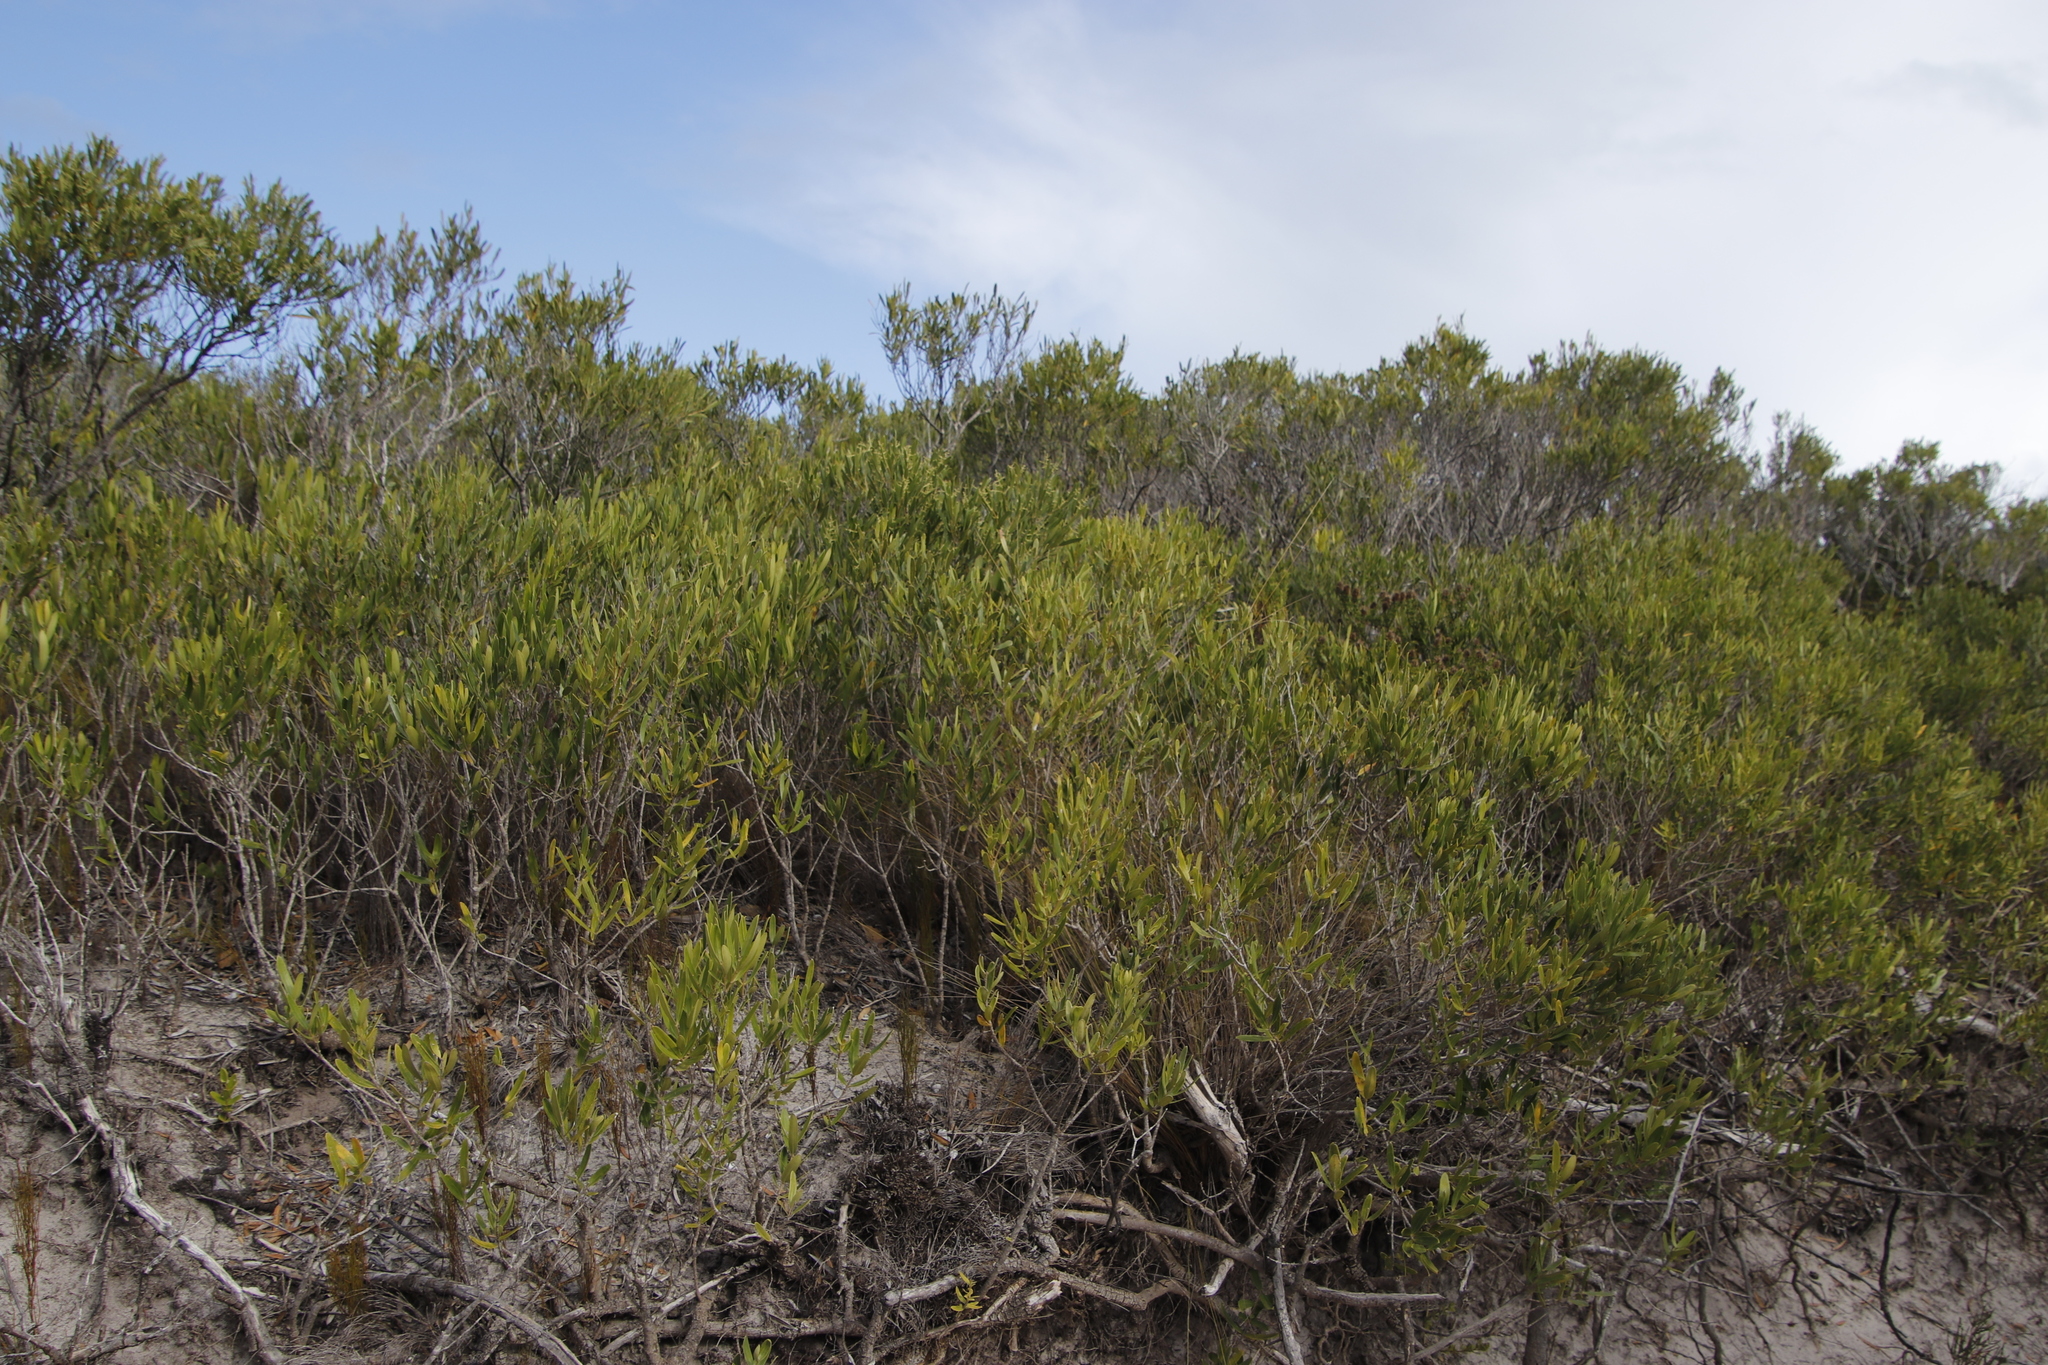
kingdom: Plantae
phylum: Tracheophyta
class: Magnoliopsida
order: Lamiales
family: Oleaceae
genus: Olea
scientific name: Olea exasperata
